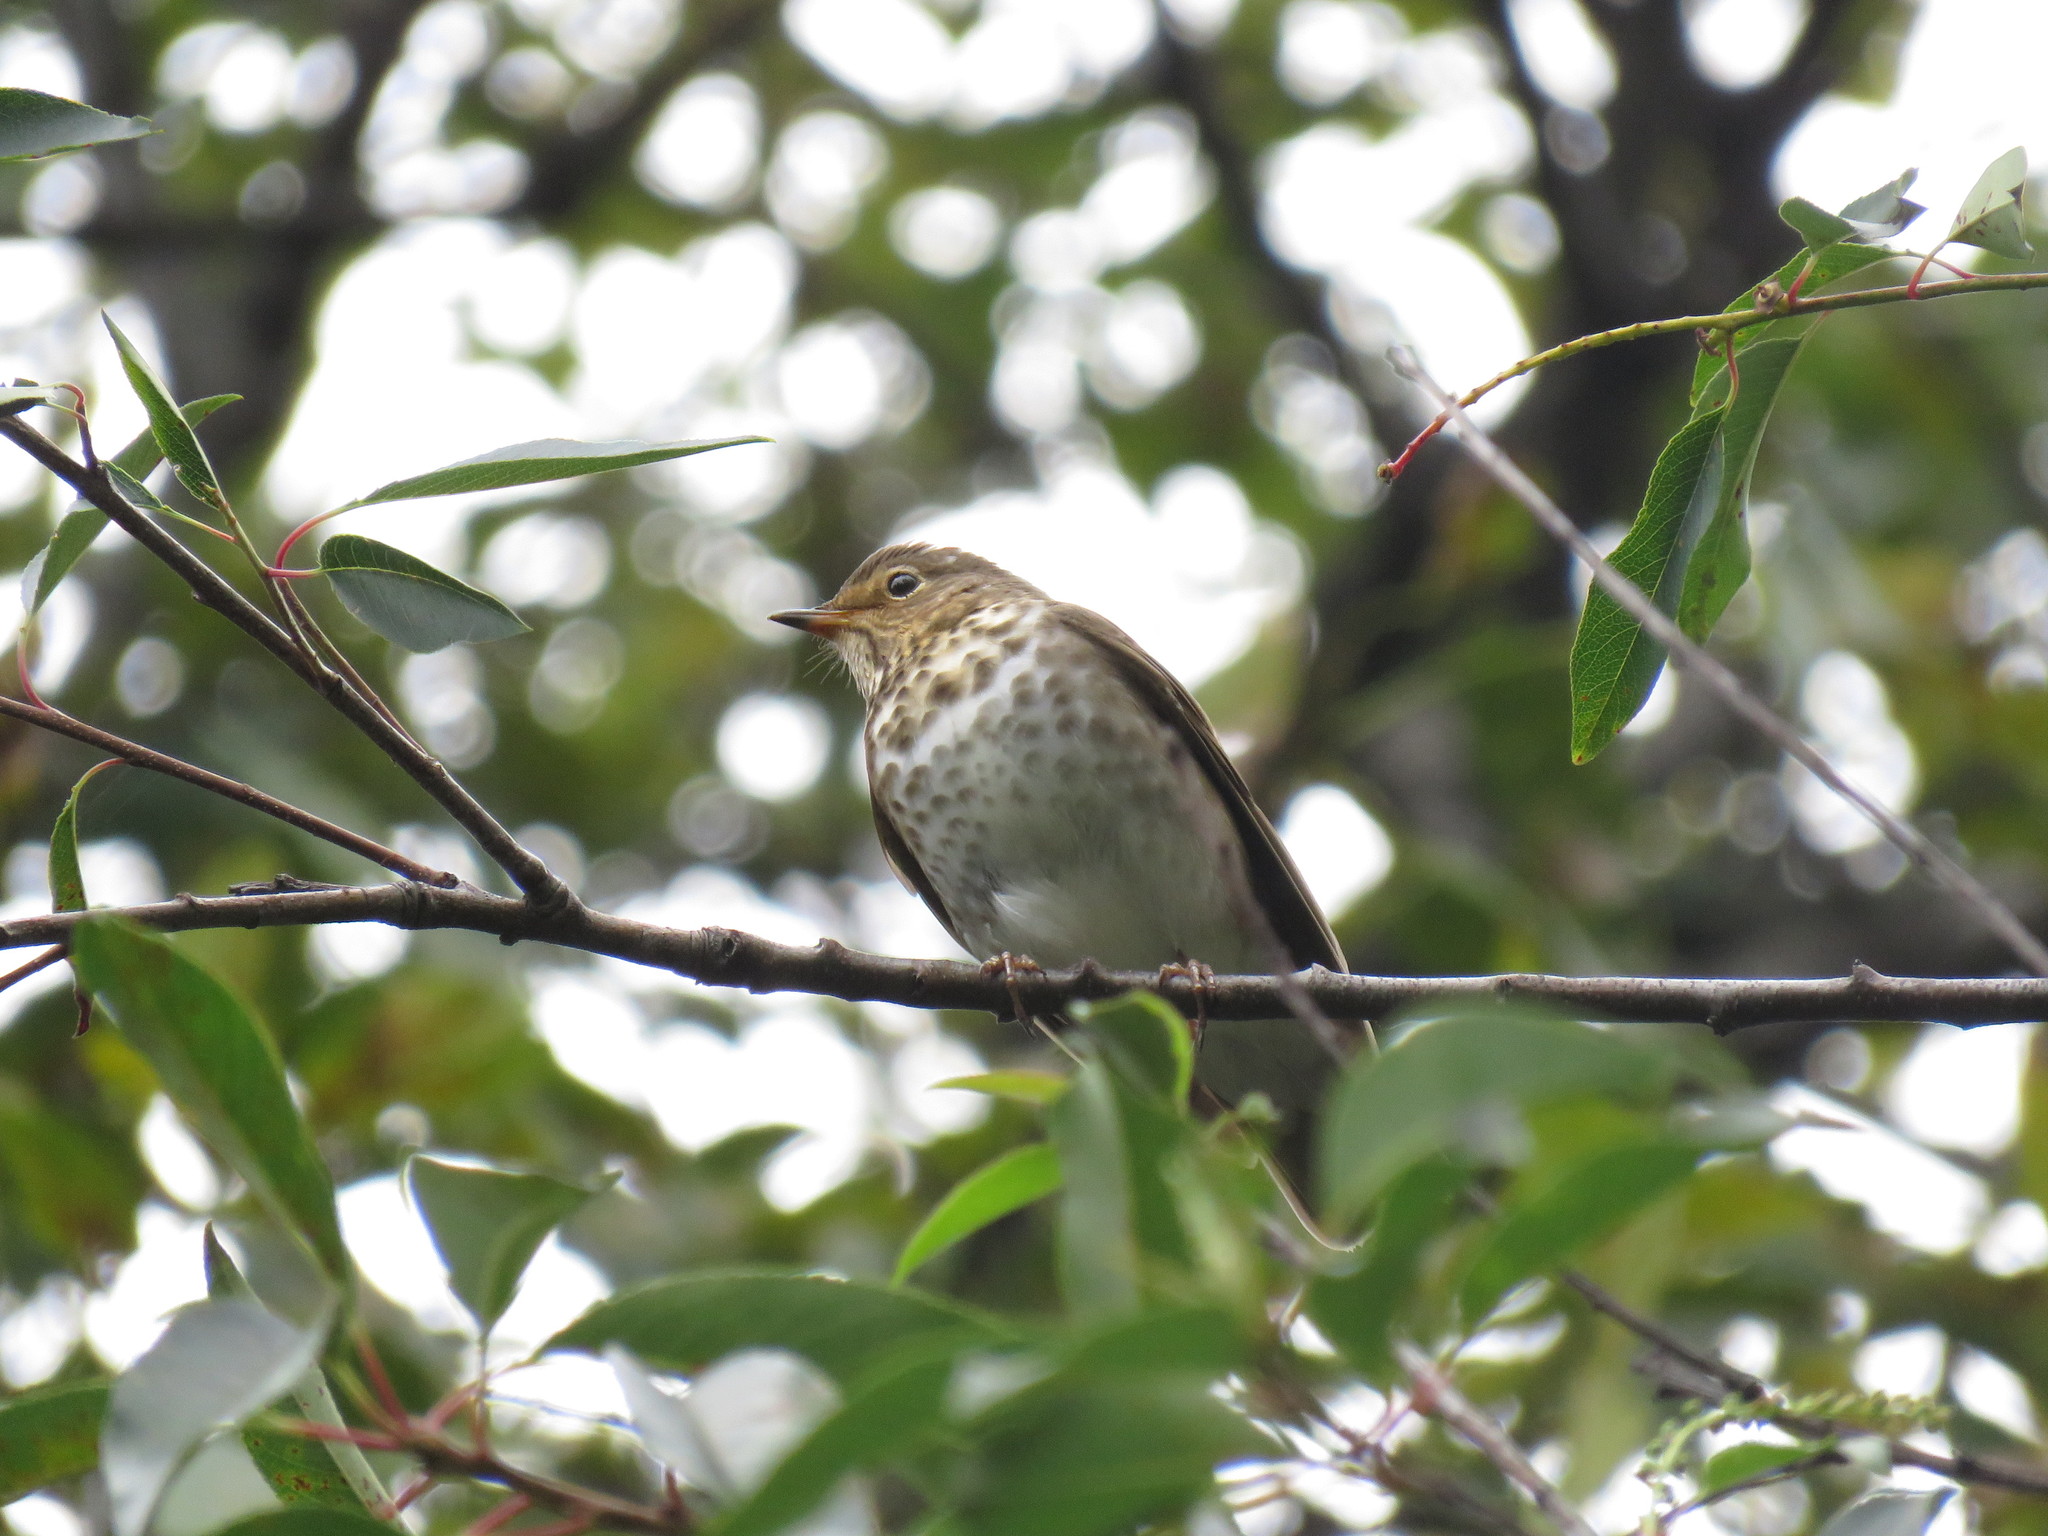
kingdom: Animalia
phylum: Chordata
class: Aves
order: Passeriformes
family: Turdidae
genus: Catharus
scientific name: Catharus ustulatus
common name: Swainson's thrush
